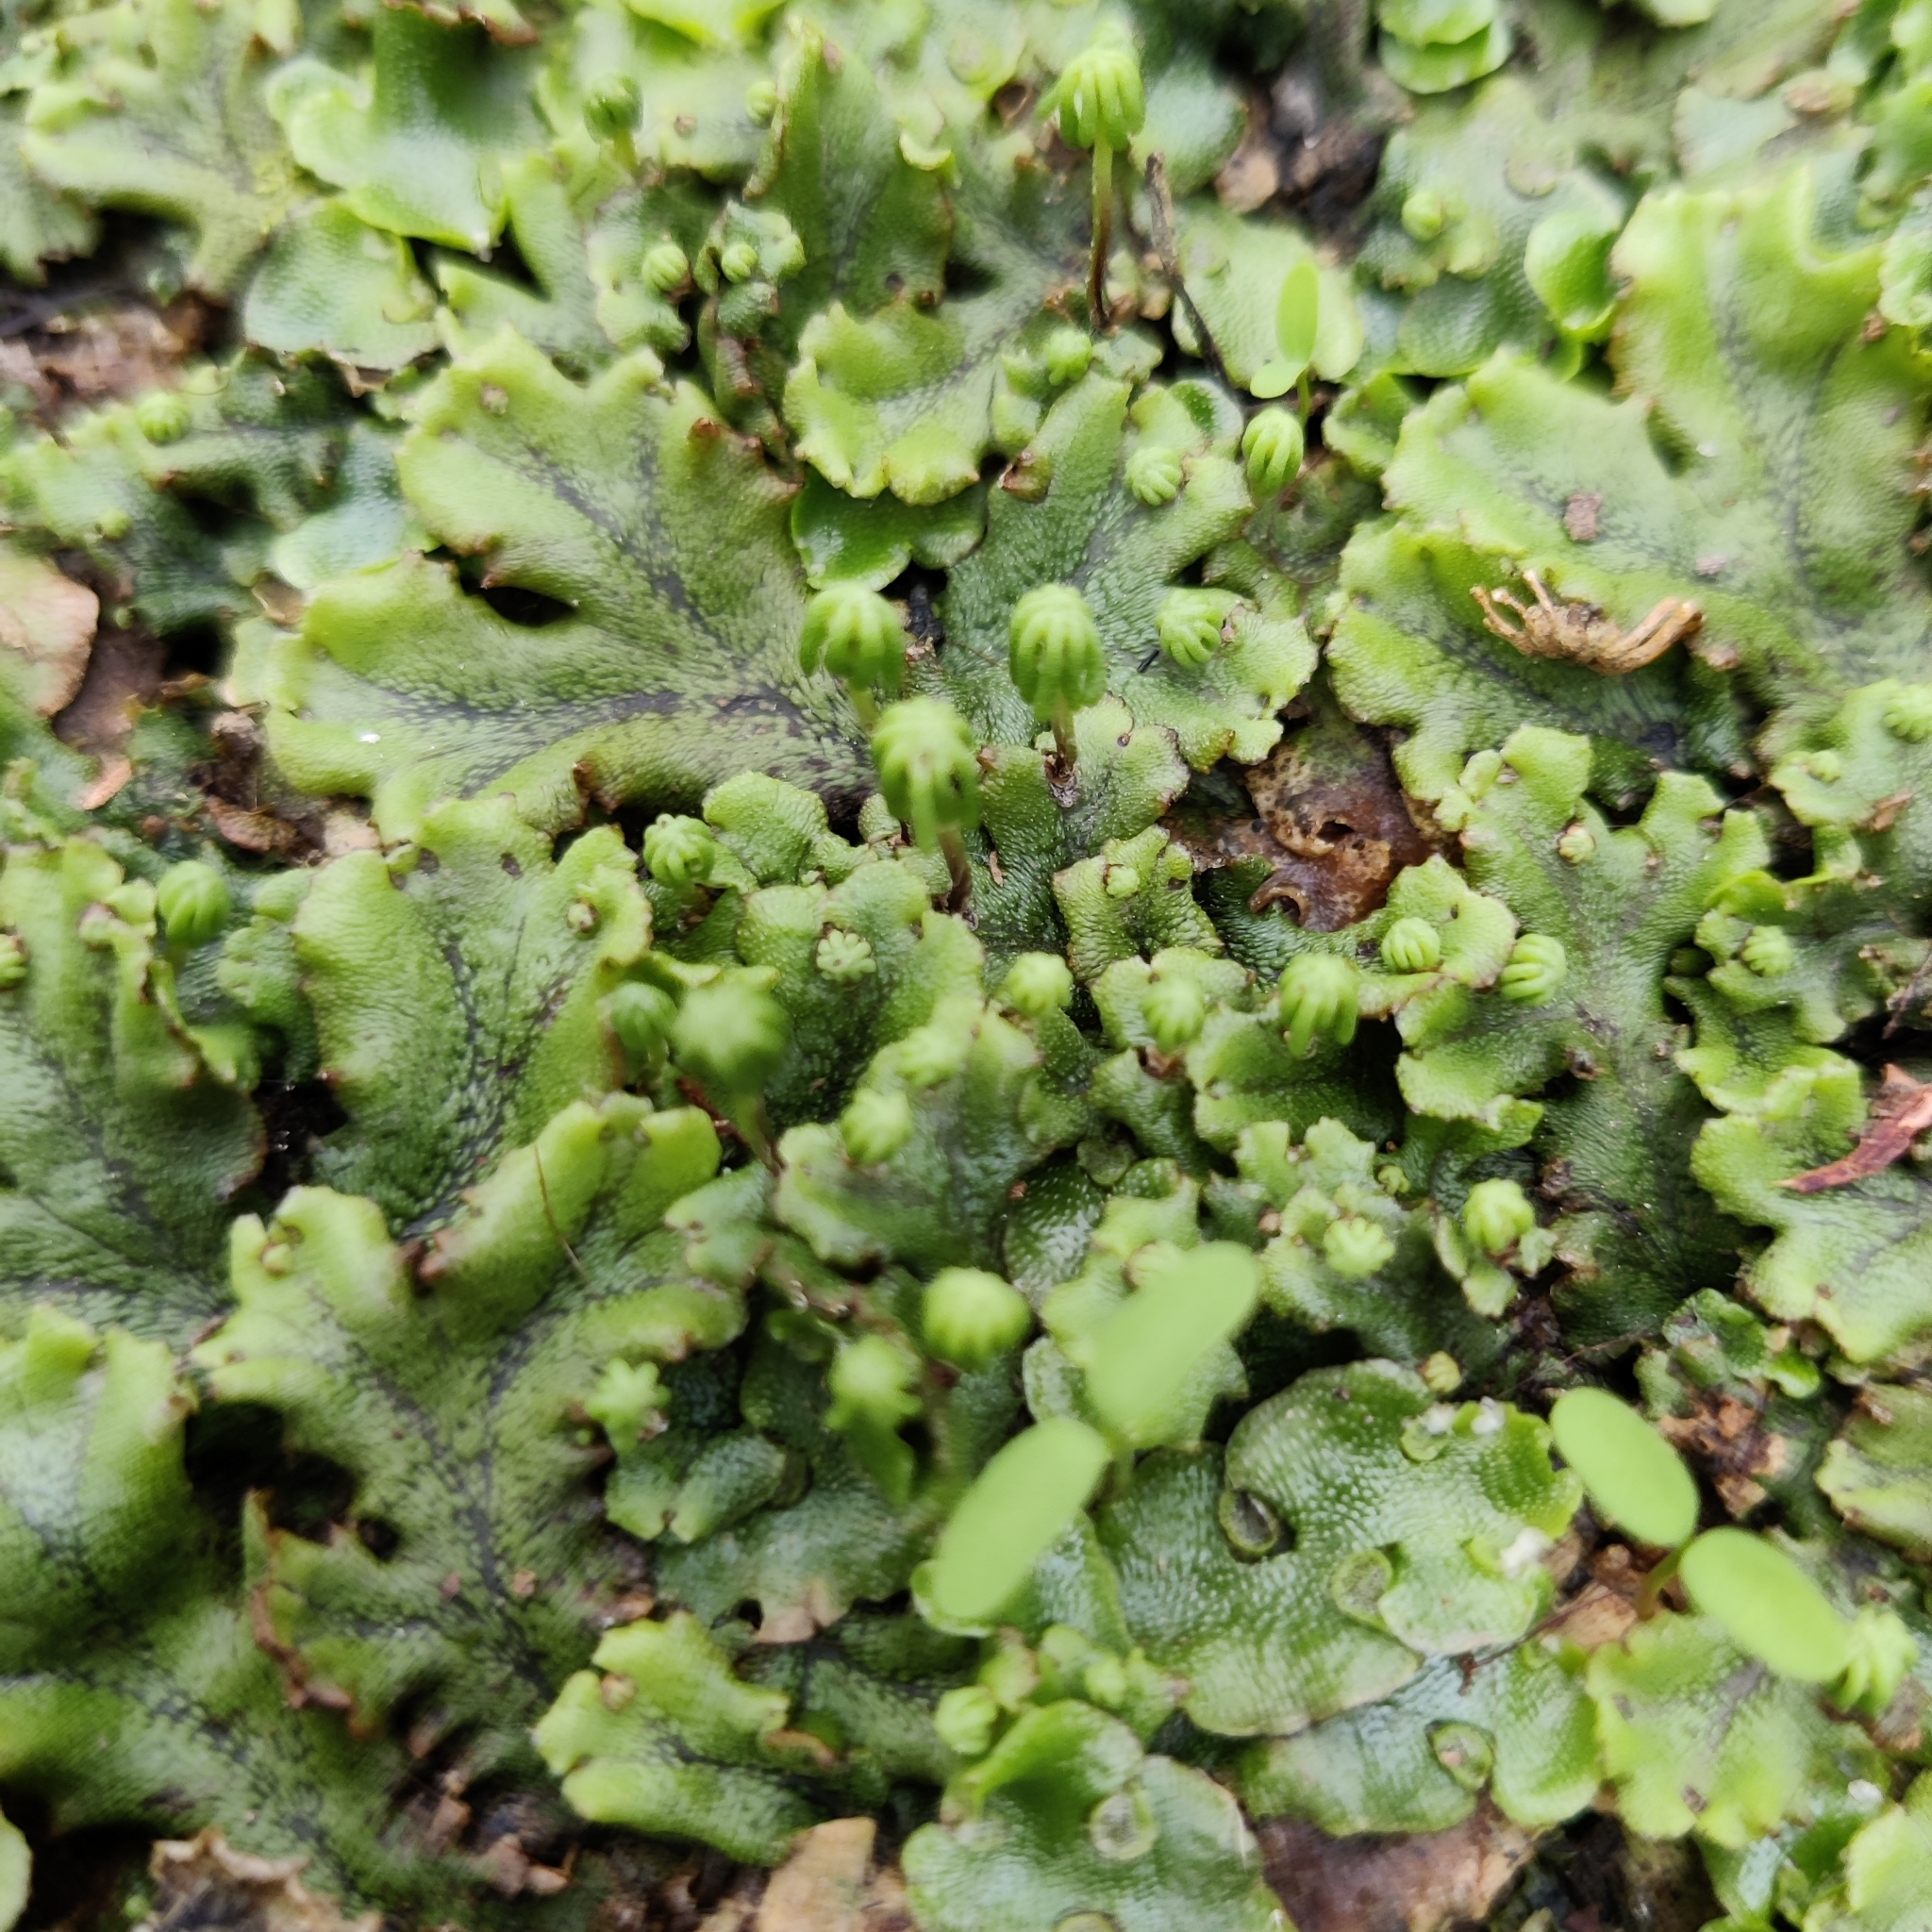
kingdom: Plantae
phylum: Marchantiophyta
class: Marchantiopsida
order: Marchantiales
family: Marchantiaceae
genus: Marchantia
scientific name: Marchantia polymorpha
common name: Common liverwort
